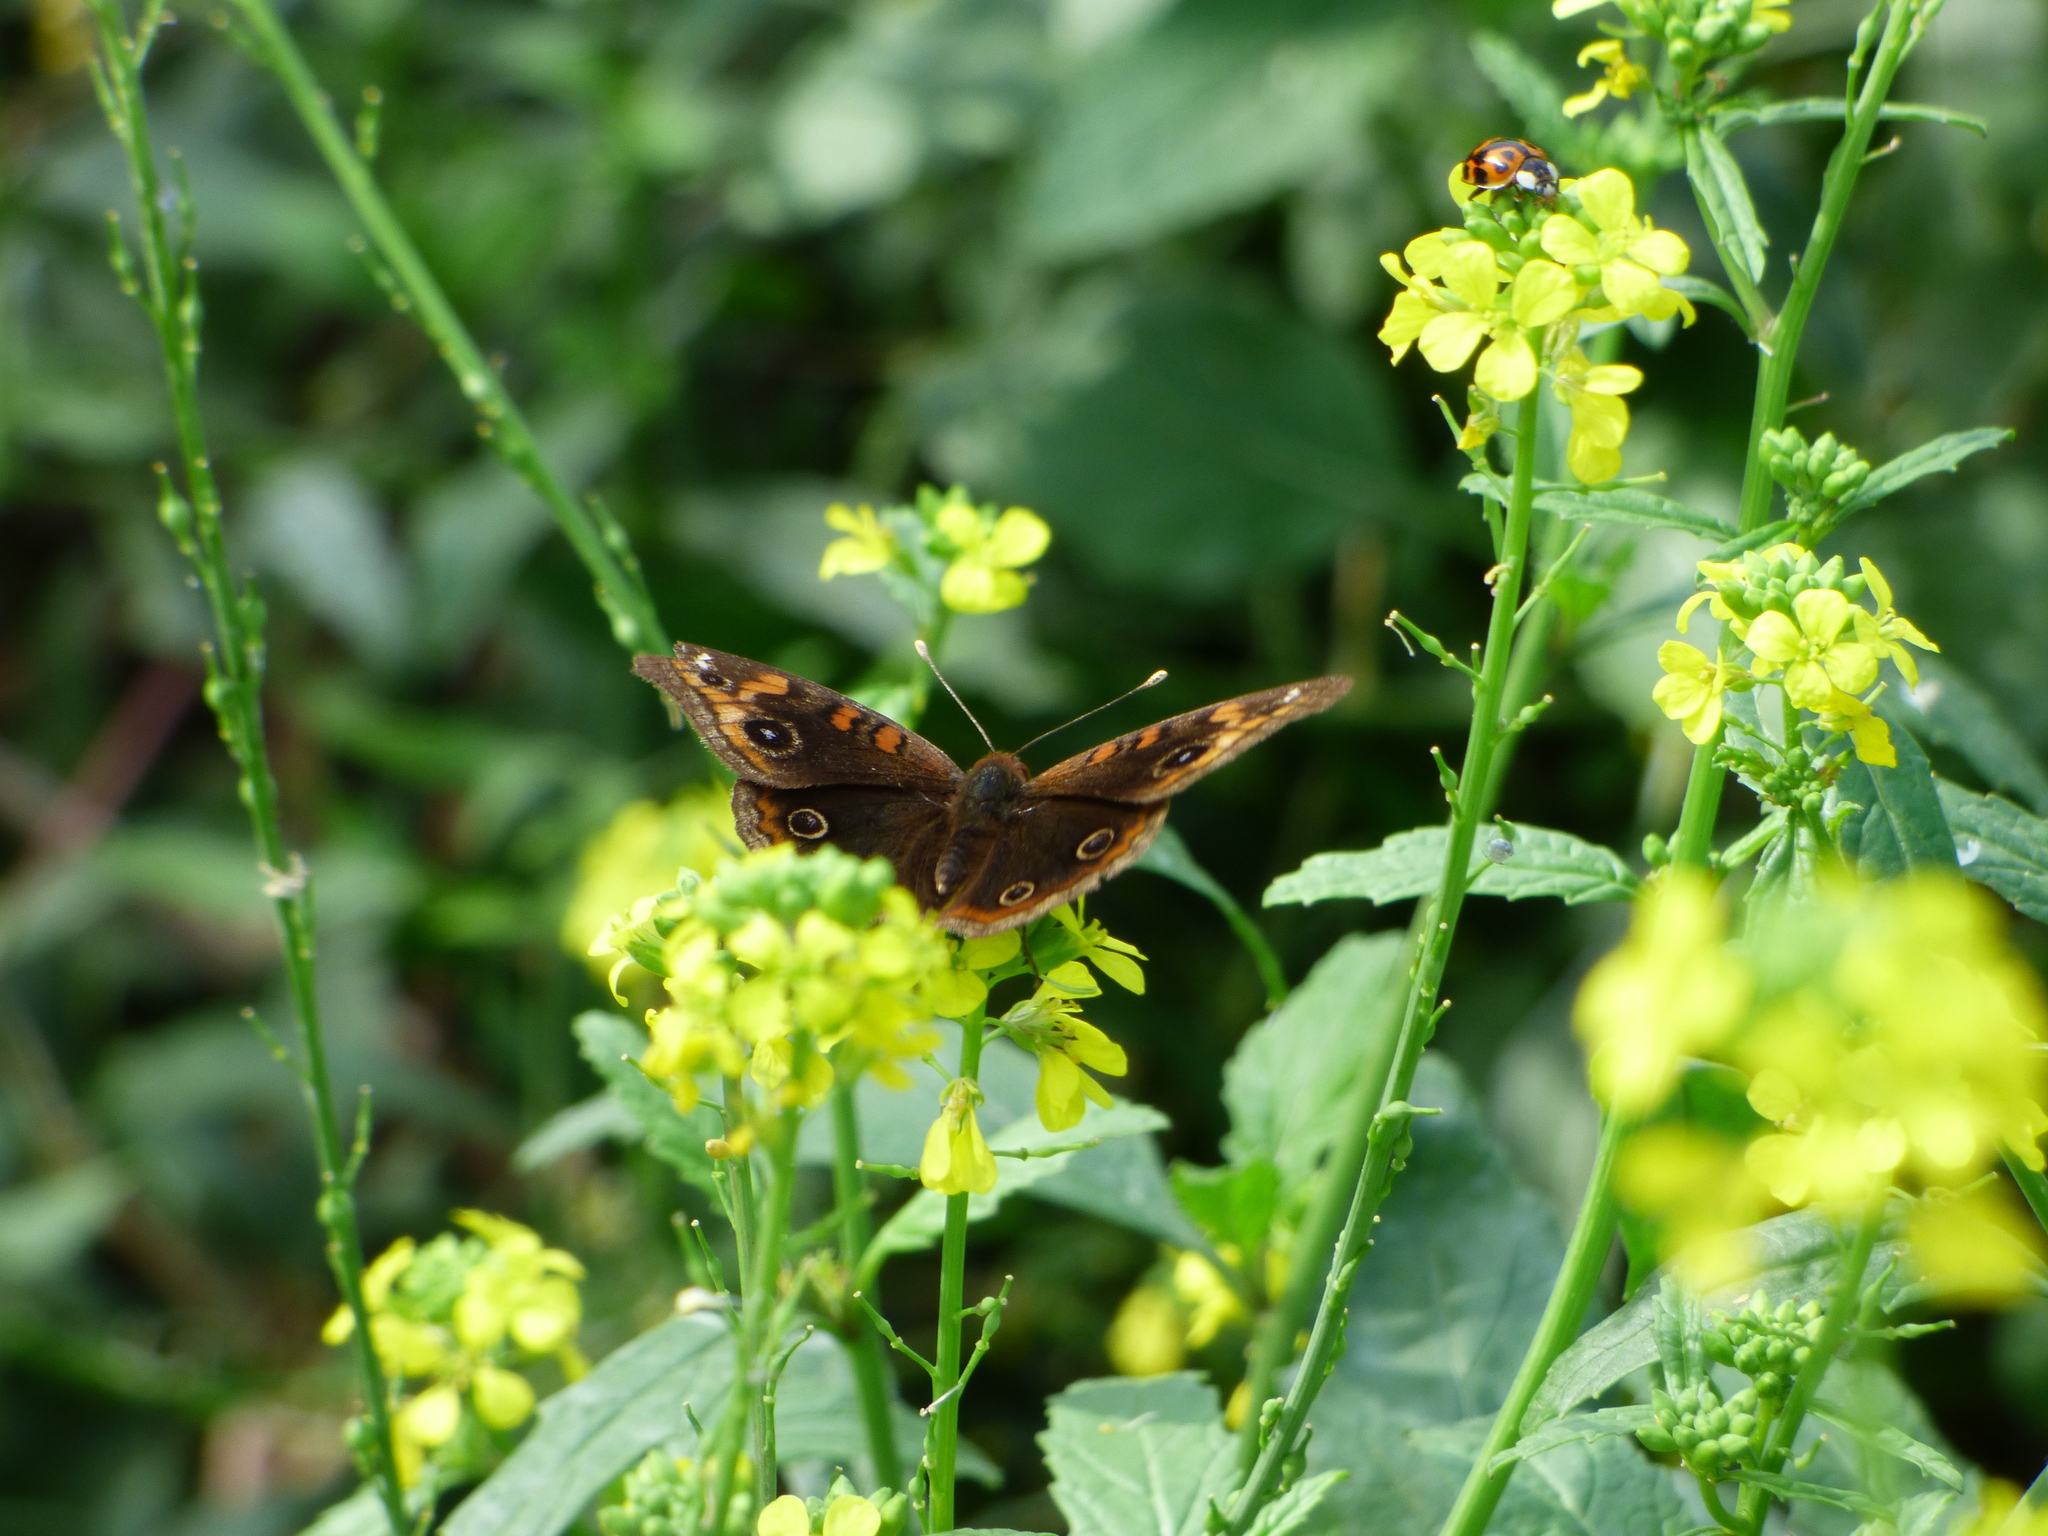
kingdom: Animalia
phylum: Arthropoda
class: Insecta
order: Lepidoptera
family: Nymphalidae
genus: Junonia
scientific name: Junonia lavinia
